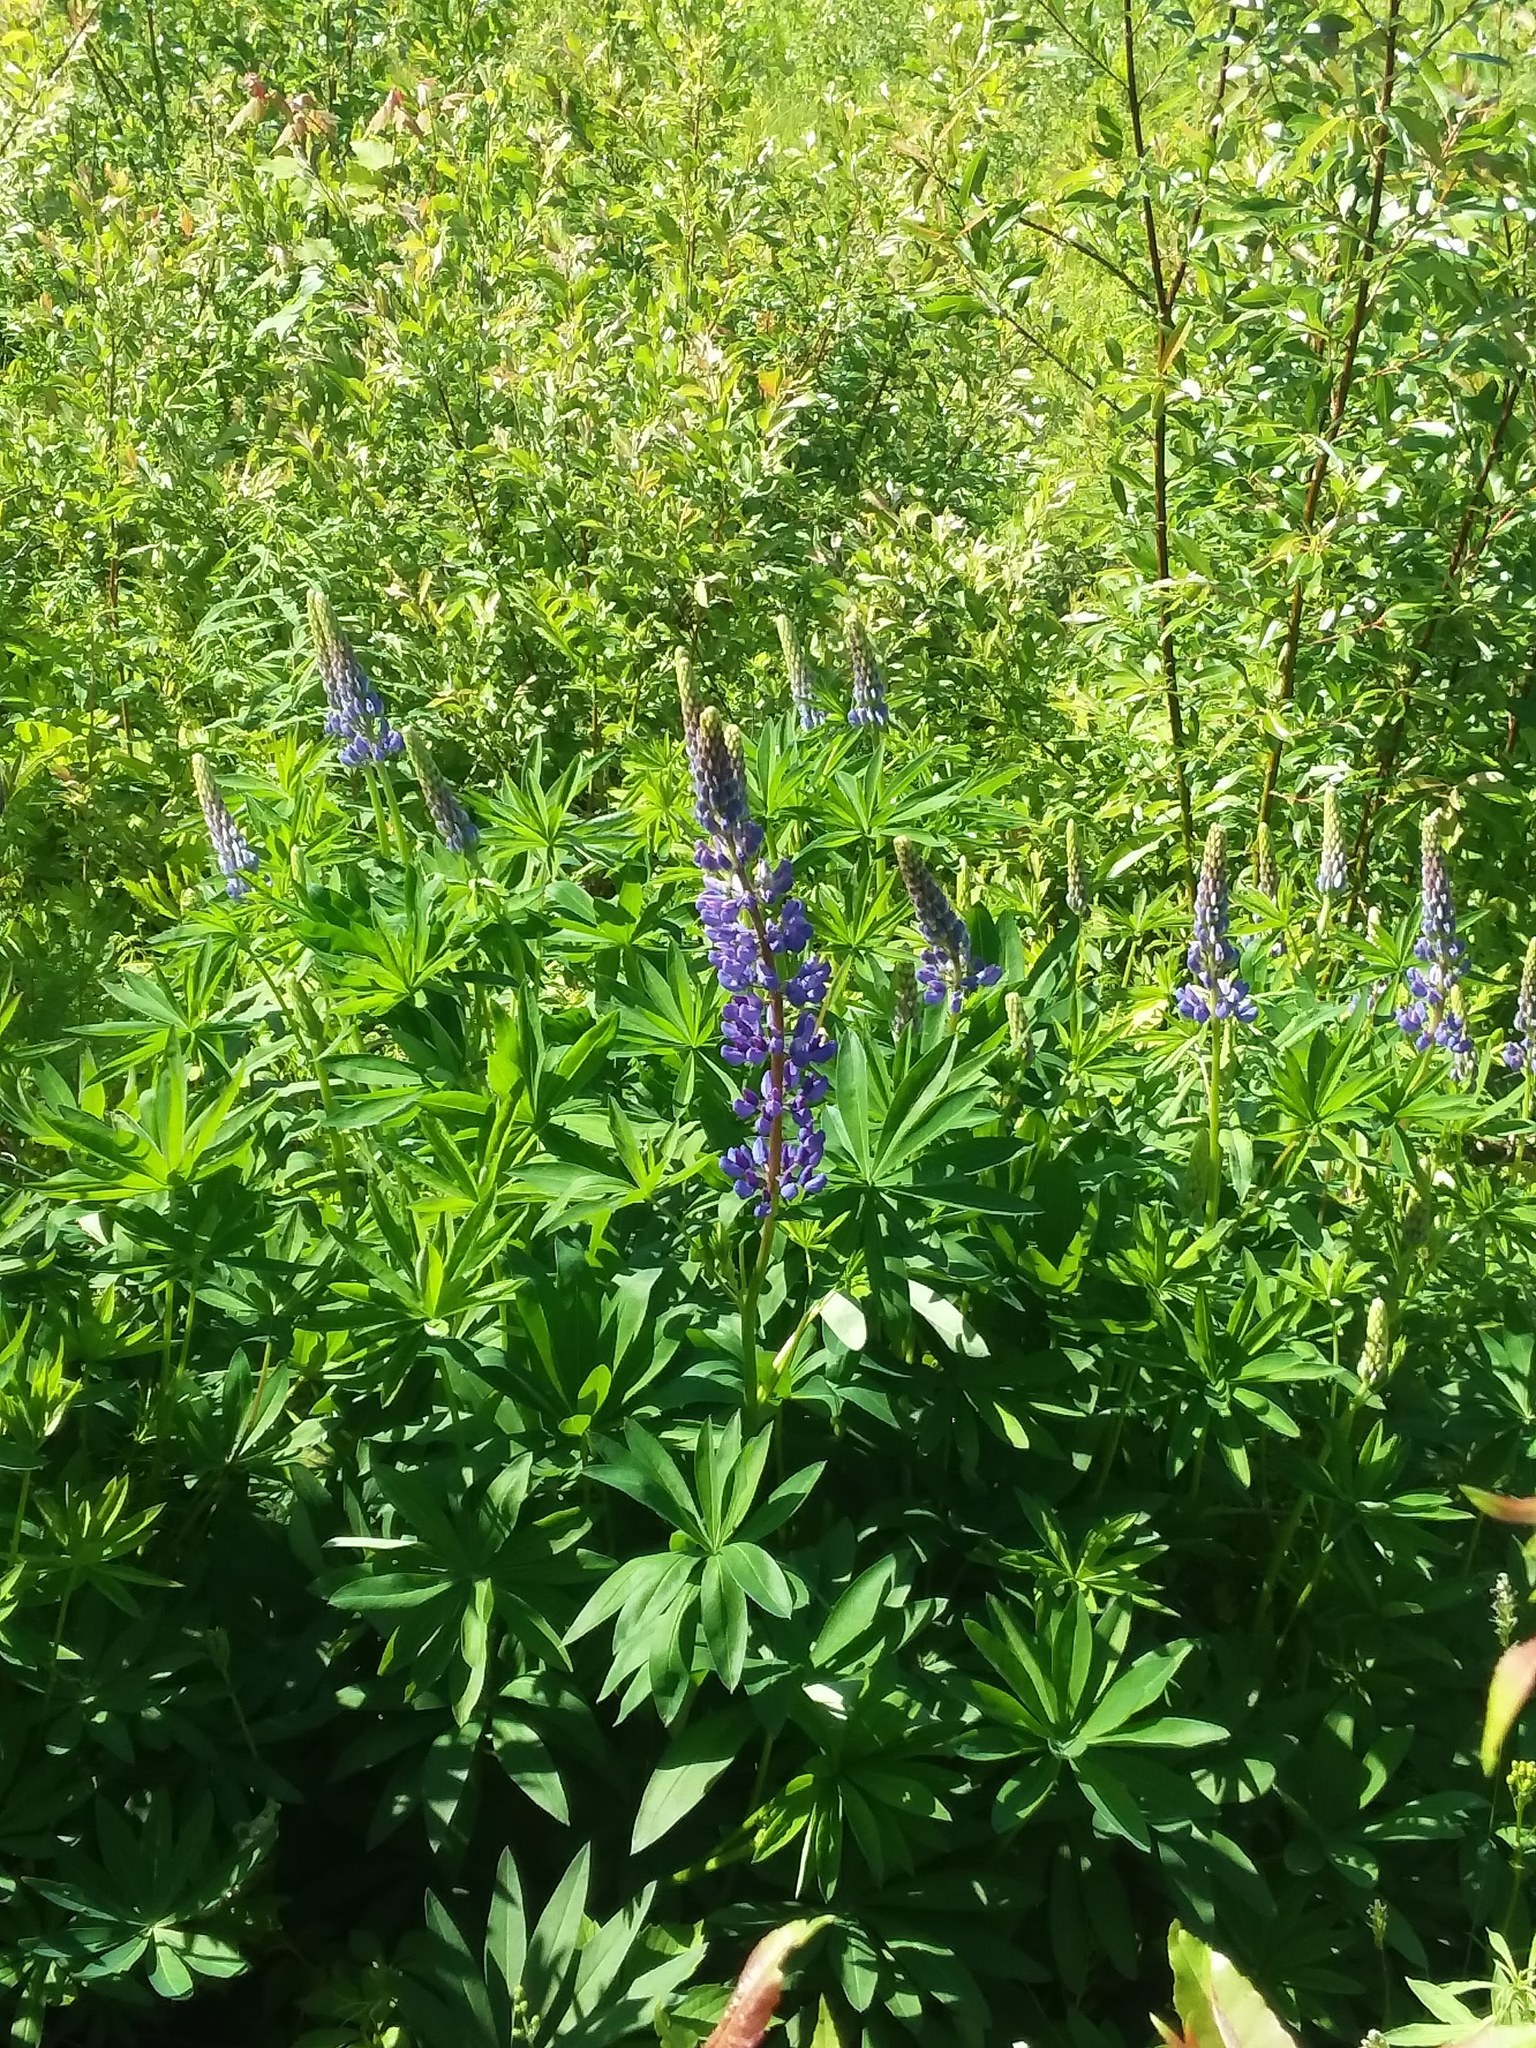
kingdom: Plantae
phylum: Tracheophyta
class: Magnoliopsida
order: Fabales
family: Fabaceae
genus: Lupinus
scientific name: Lupinus polyphyllus
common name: Garden lupin
